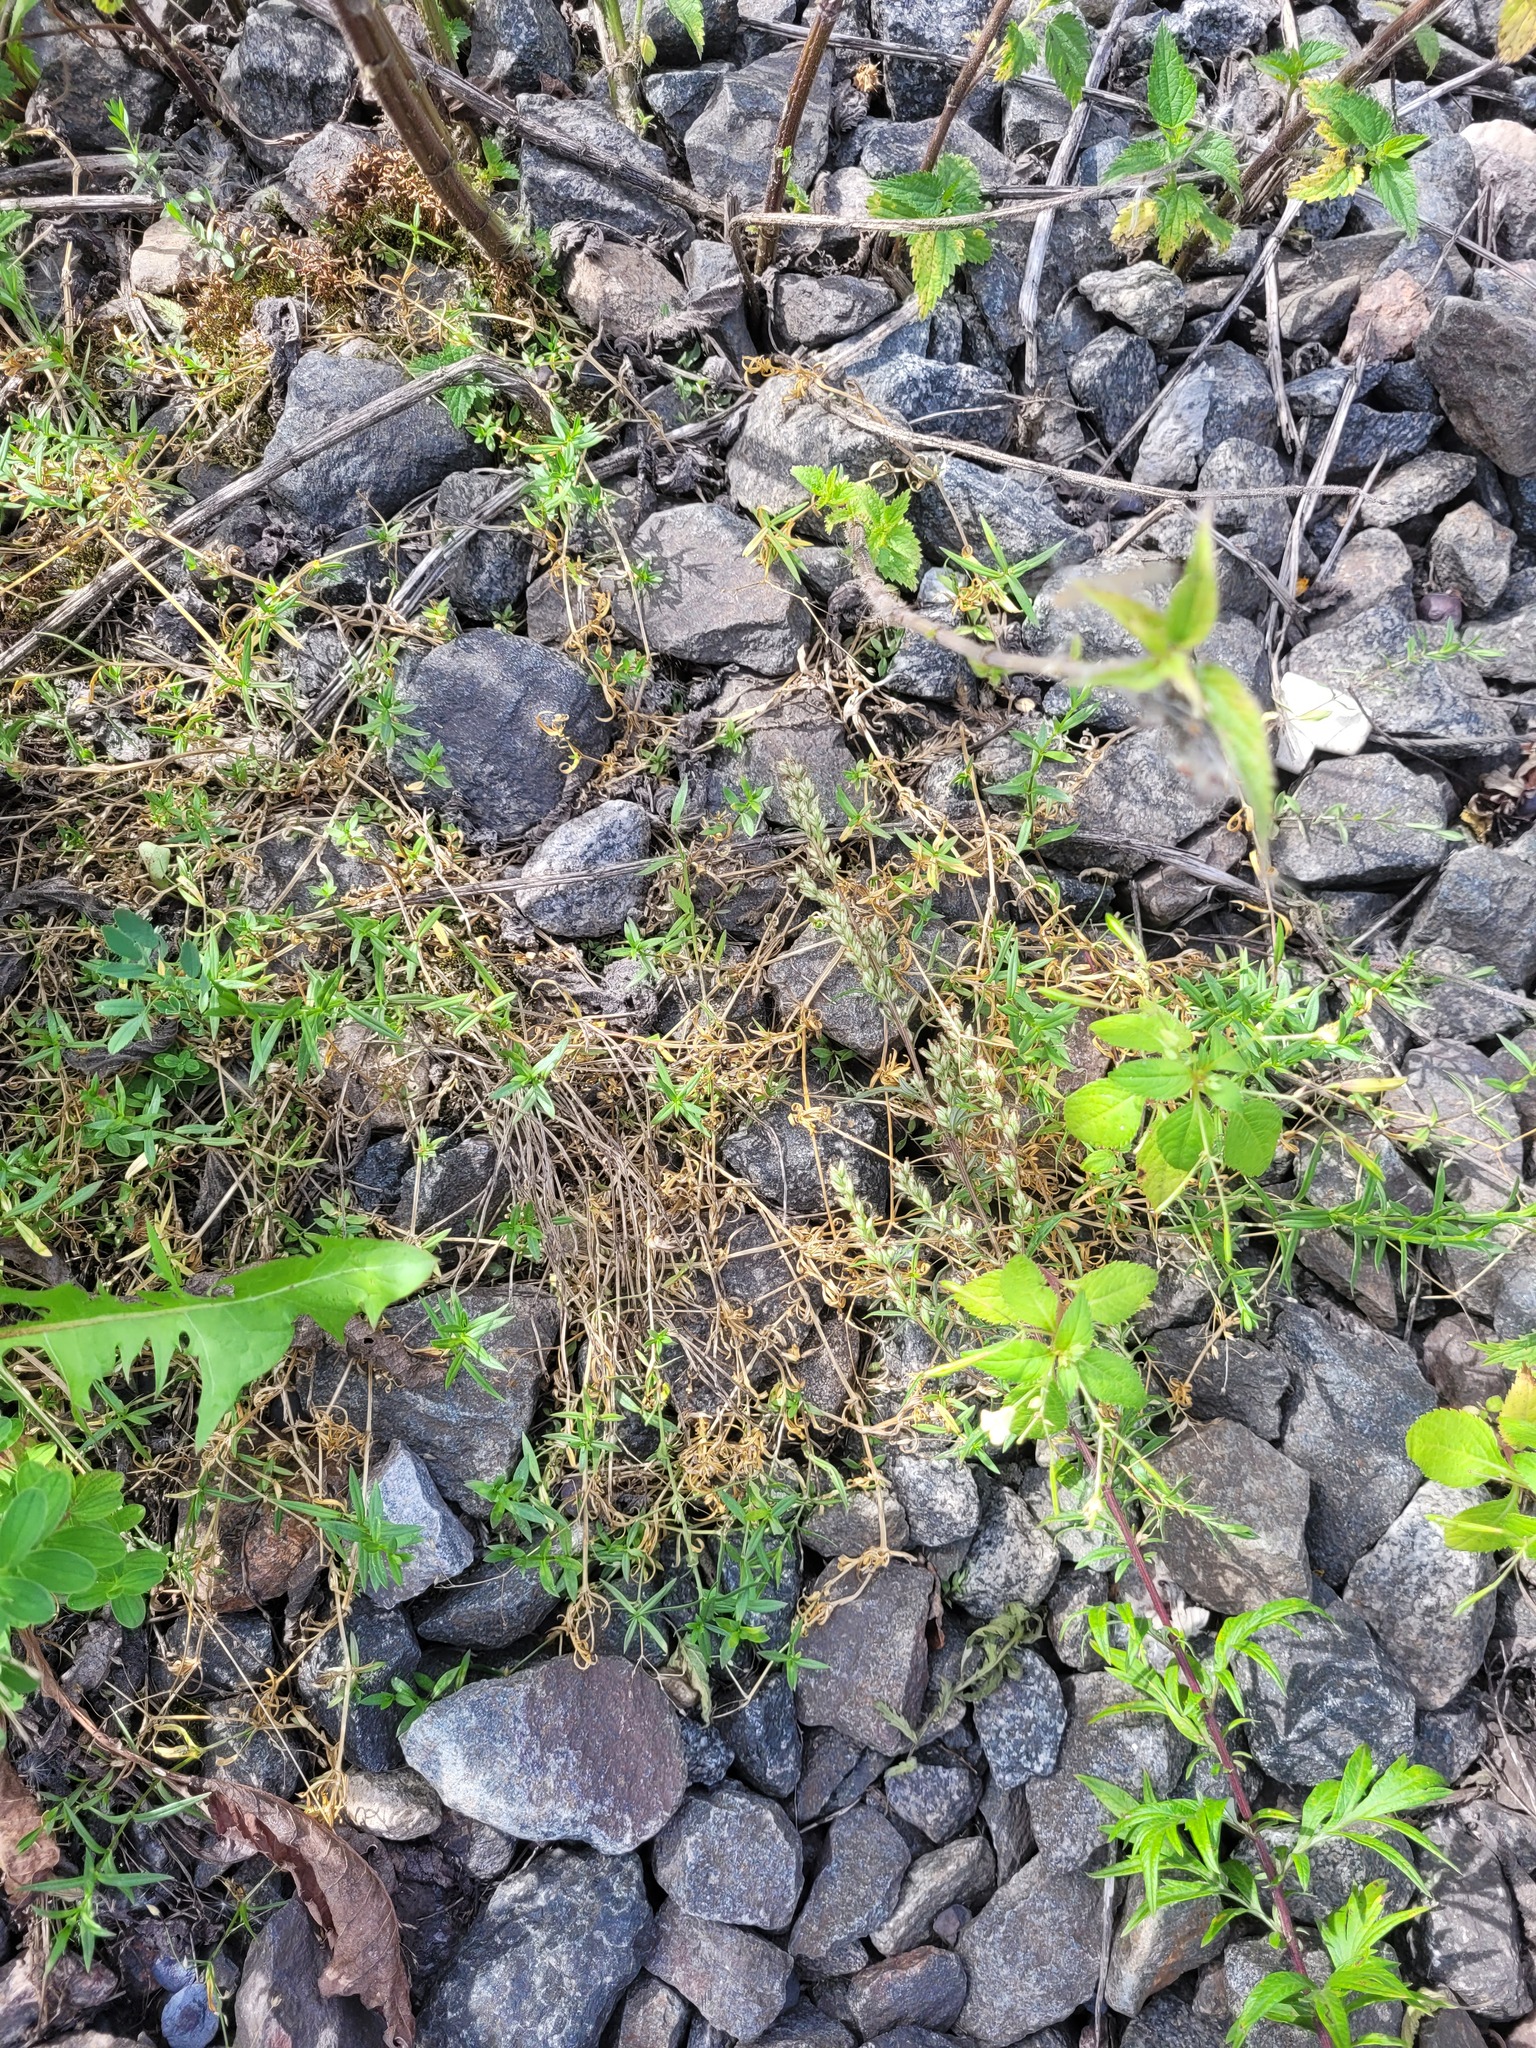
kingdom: Plantae
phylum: Tracheophyta
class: Magnoliopsida
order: Caryophyllales
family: Caryophyllaceae
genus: Stellaria
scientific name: Stellaria graminea
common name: Grass-like starwort
